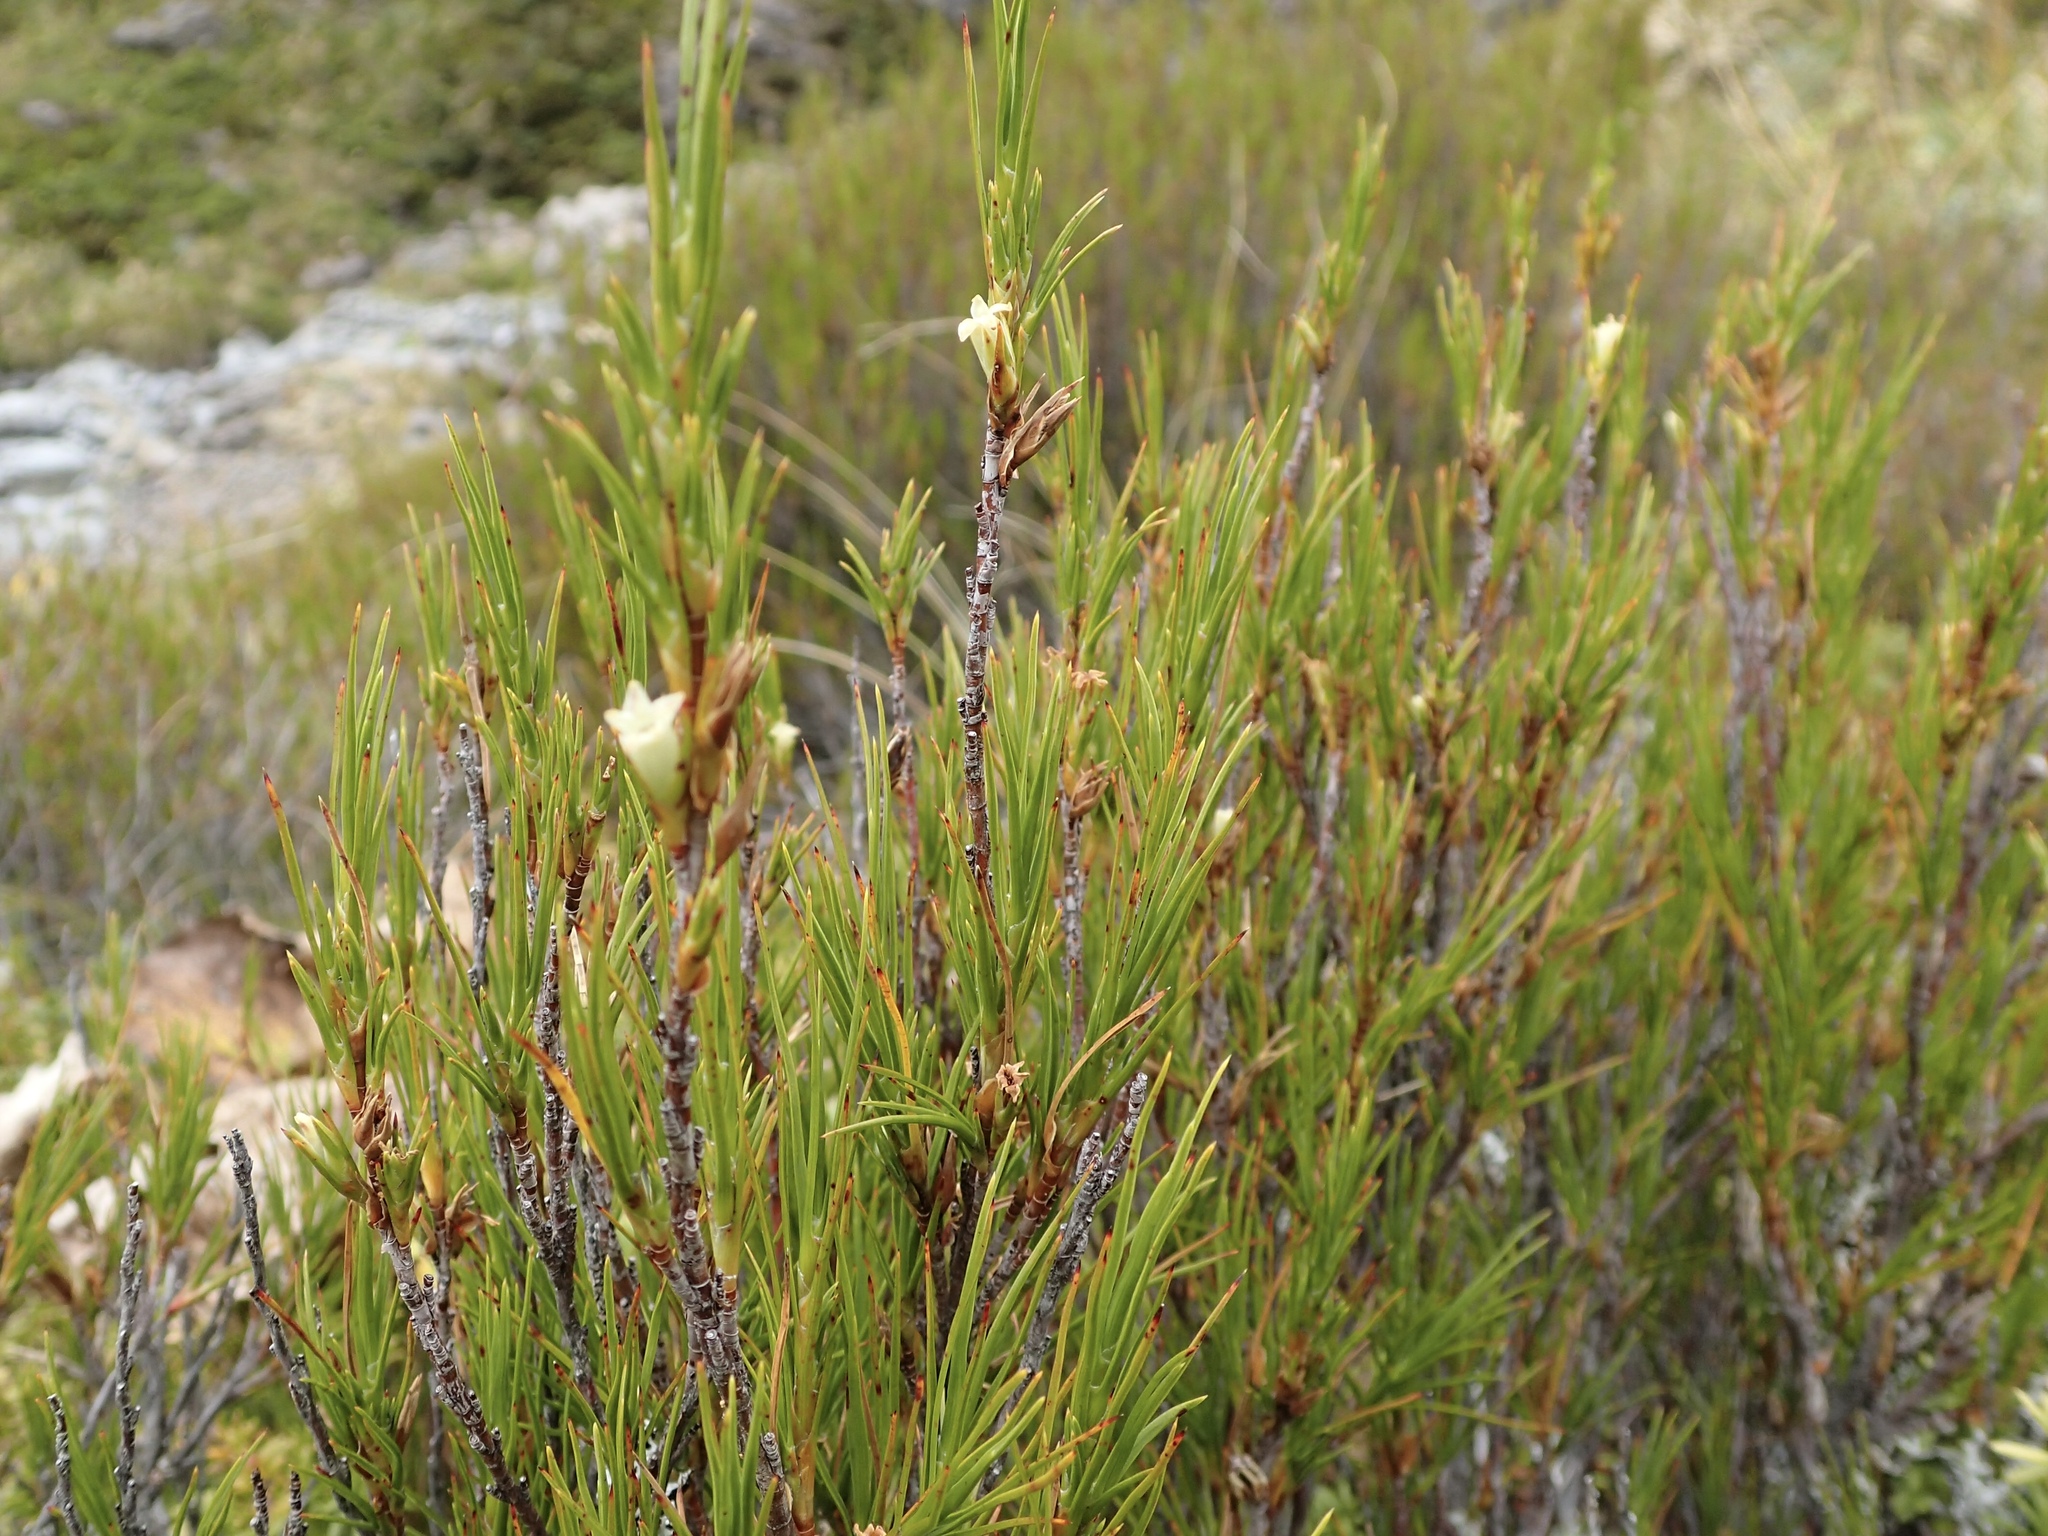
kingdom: Plantae
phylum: Tracheophyta
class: Magnoliopsida
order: Ericales
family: Ericaceae
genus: Dracophyllum
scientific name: Dracophyllum rosmarinifolium
